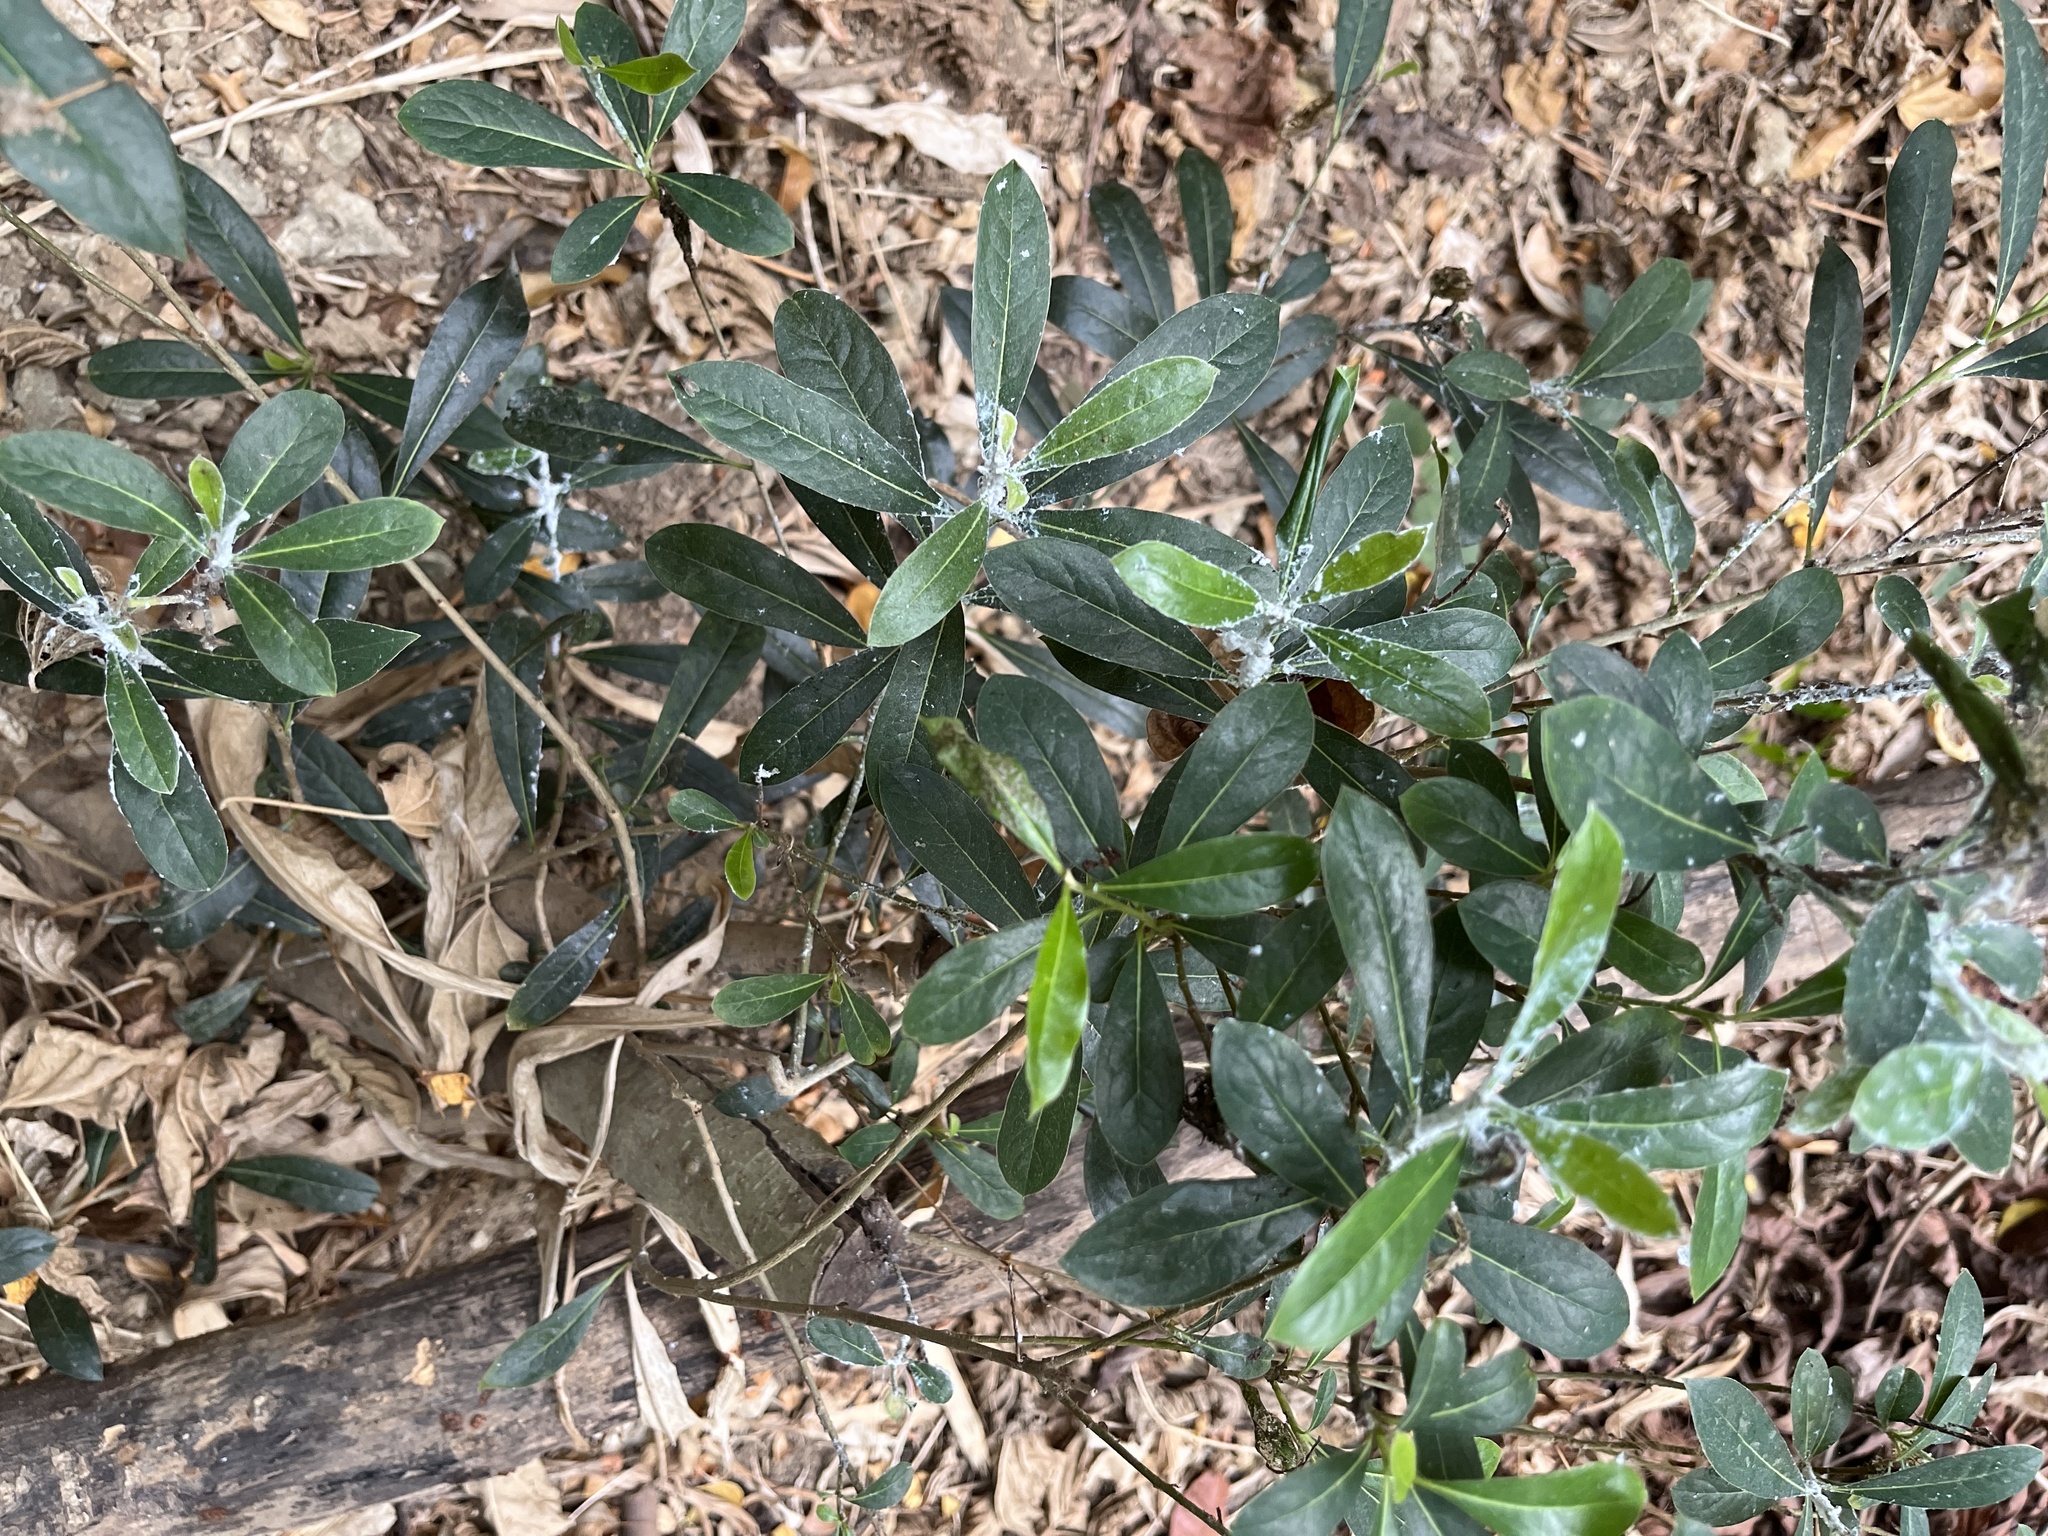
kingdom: Plantae
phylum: Tracheophyta
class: Magnoliopsida
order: Apiales
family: Pittosporaceae
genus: Pittosporum
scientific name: Pittosporum pentandrum
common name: Taiwanese cheesewood
